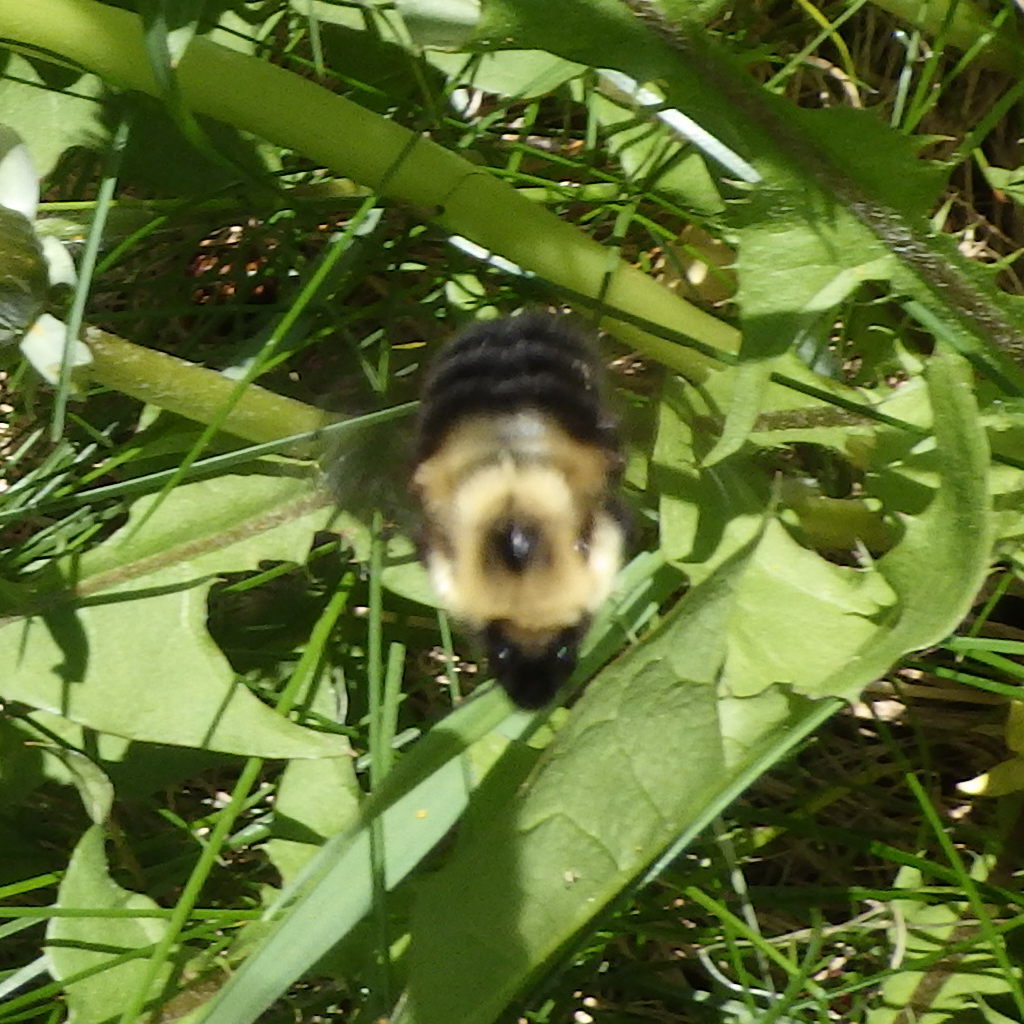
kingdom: Animalia
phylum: Arthropoda
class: Insecta
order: Hymenoptera
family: Apidae
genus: Bombus
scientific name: Bombus bimaculatus
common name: Two-spotted bumble bee
